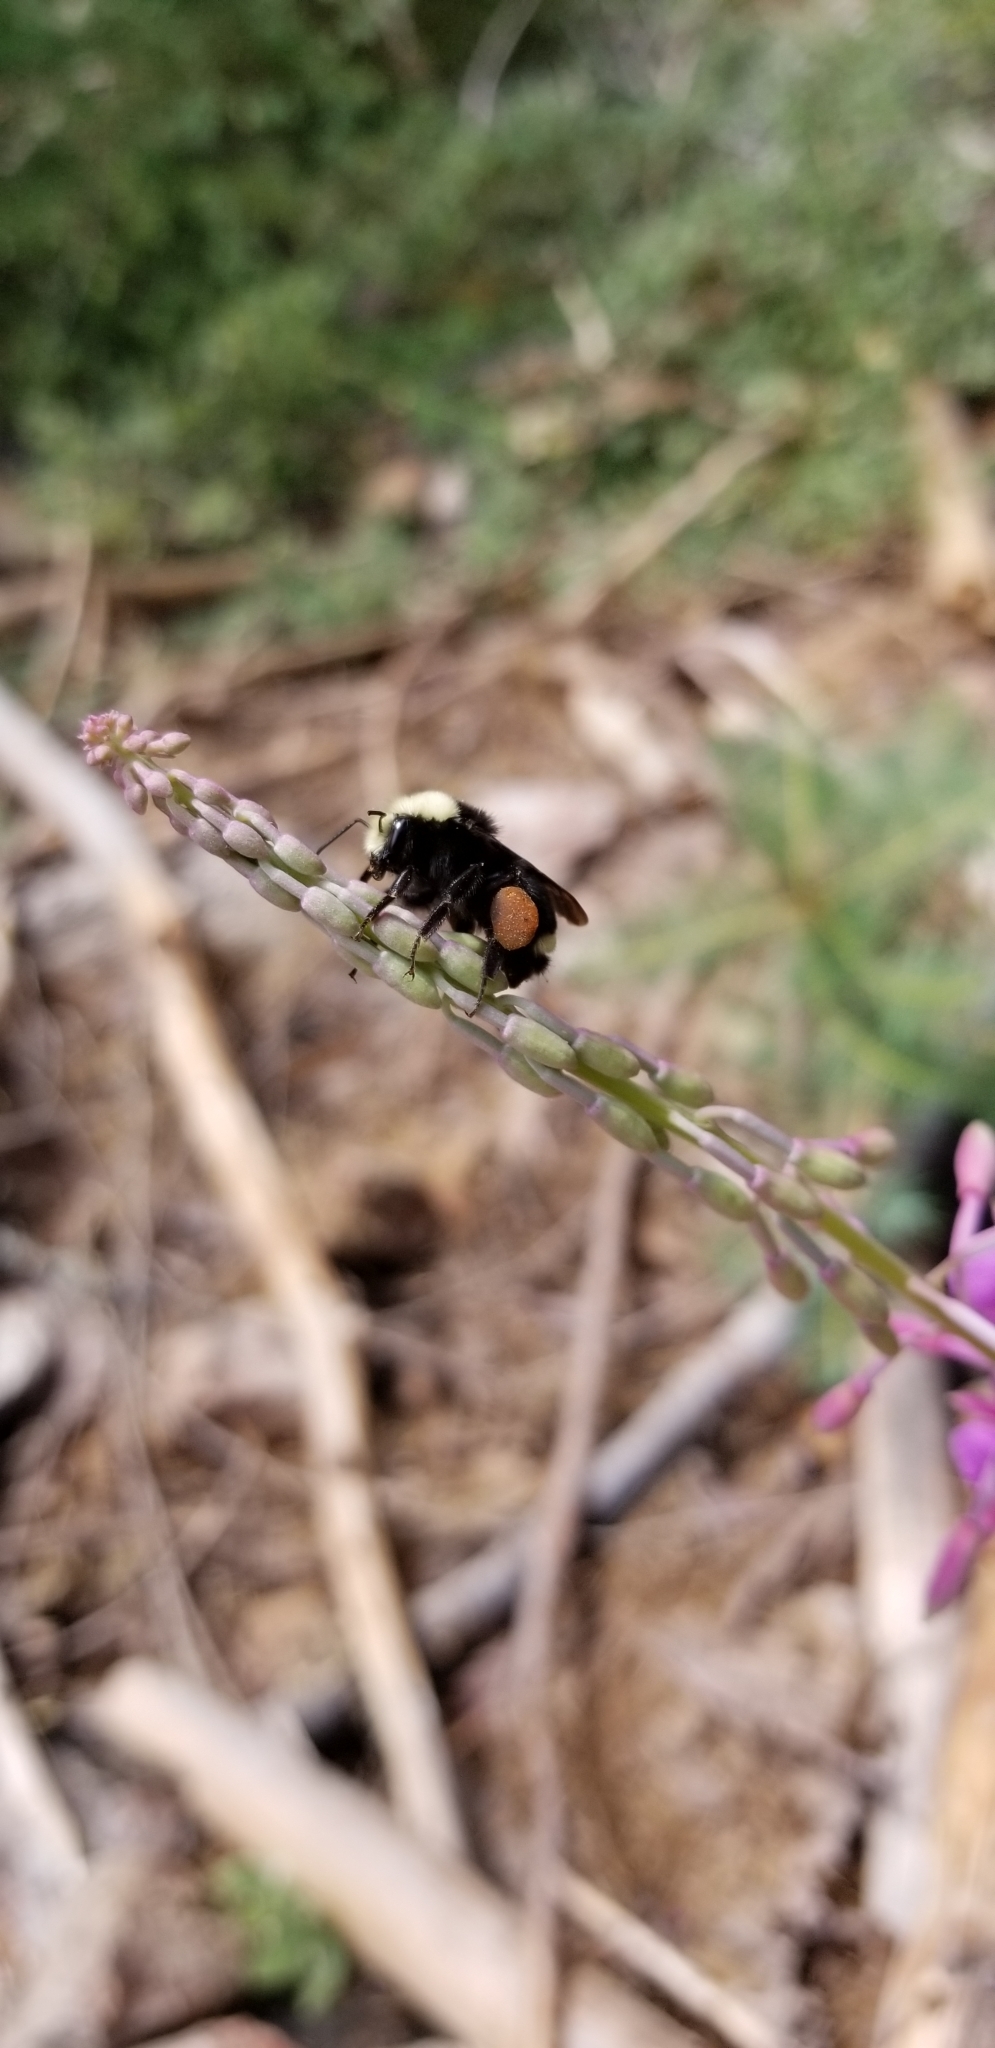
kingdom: Animalia
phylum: Arthropoda
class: Insecta
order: Hymenoptera
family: Apidae
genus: Bombus
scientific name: Bombus vosnesenskii
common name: Vosnesensky bumble bee
